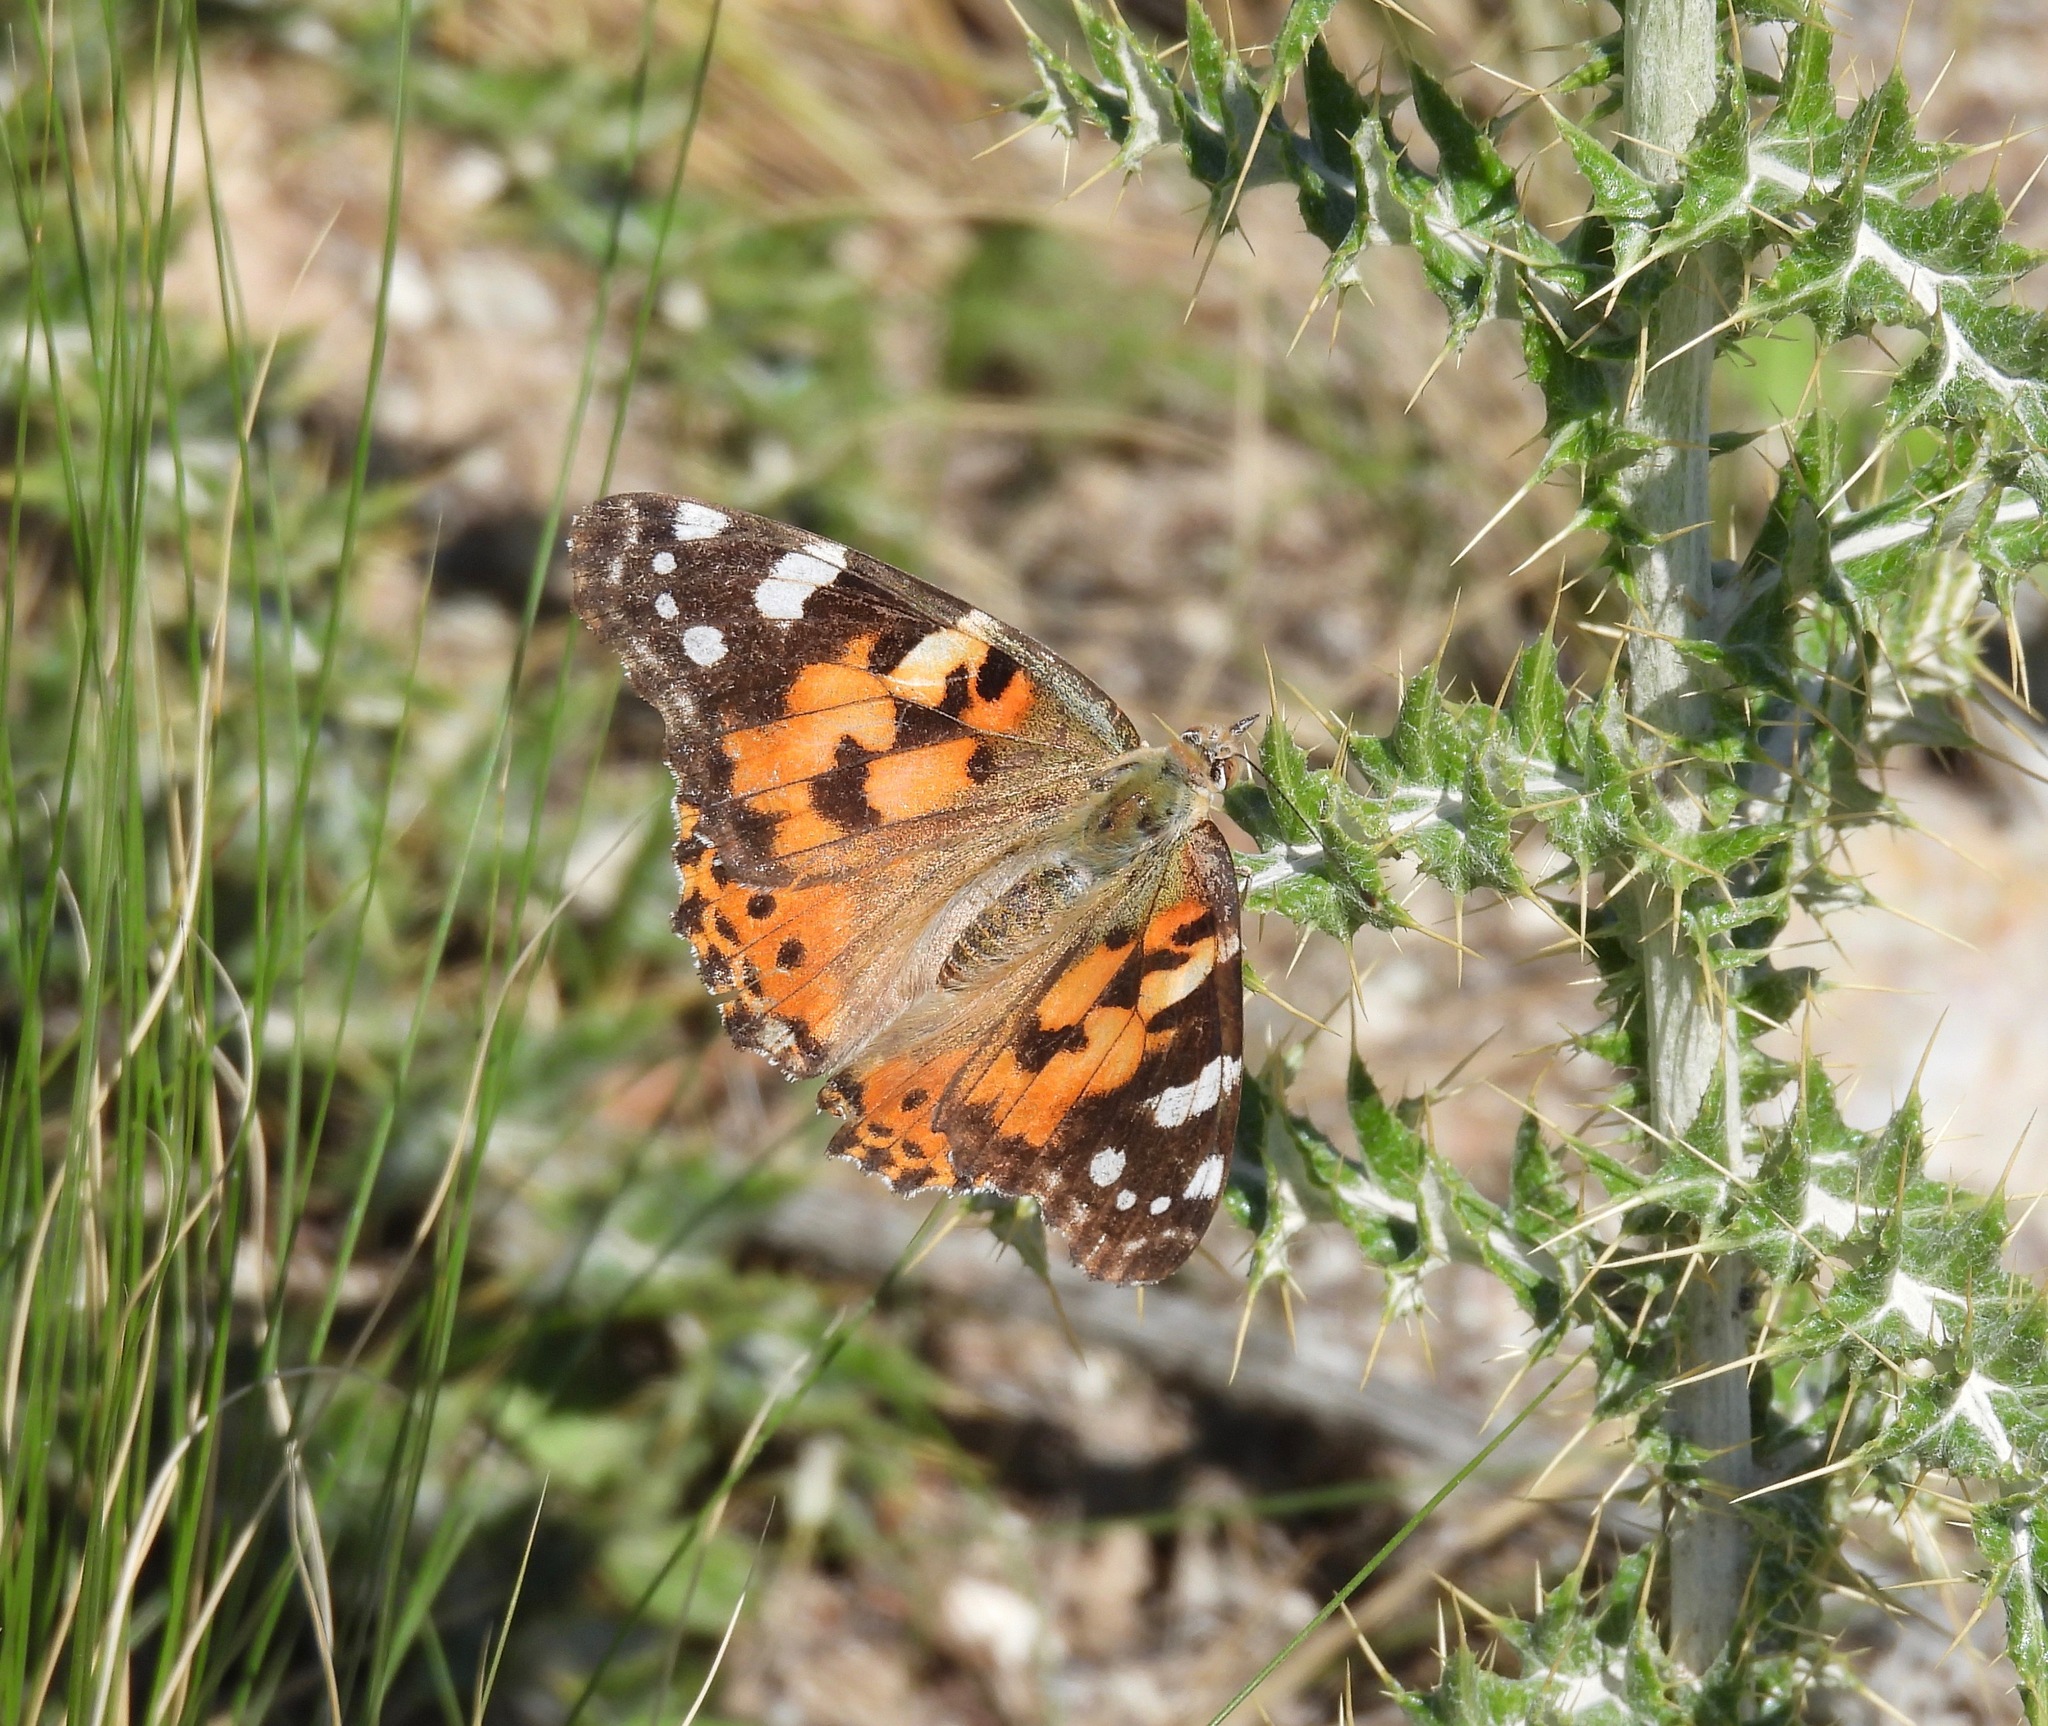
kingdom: Animalia
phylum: Arthropoda
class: Insecta
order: Lepidoptera
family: Nymphalidae
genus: Vanessa
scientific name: Vanessa cardui
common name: Painted lady
